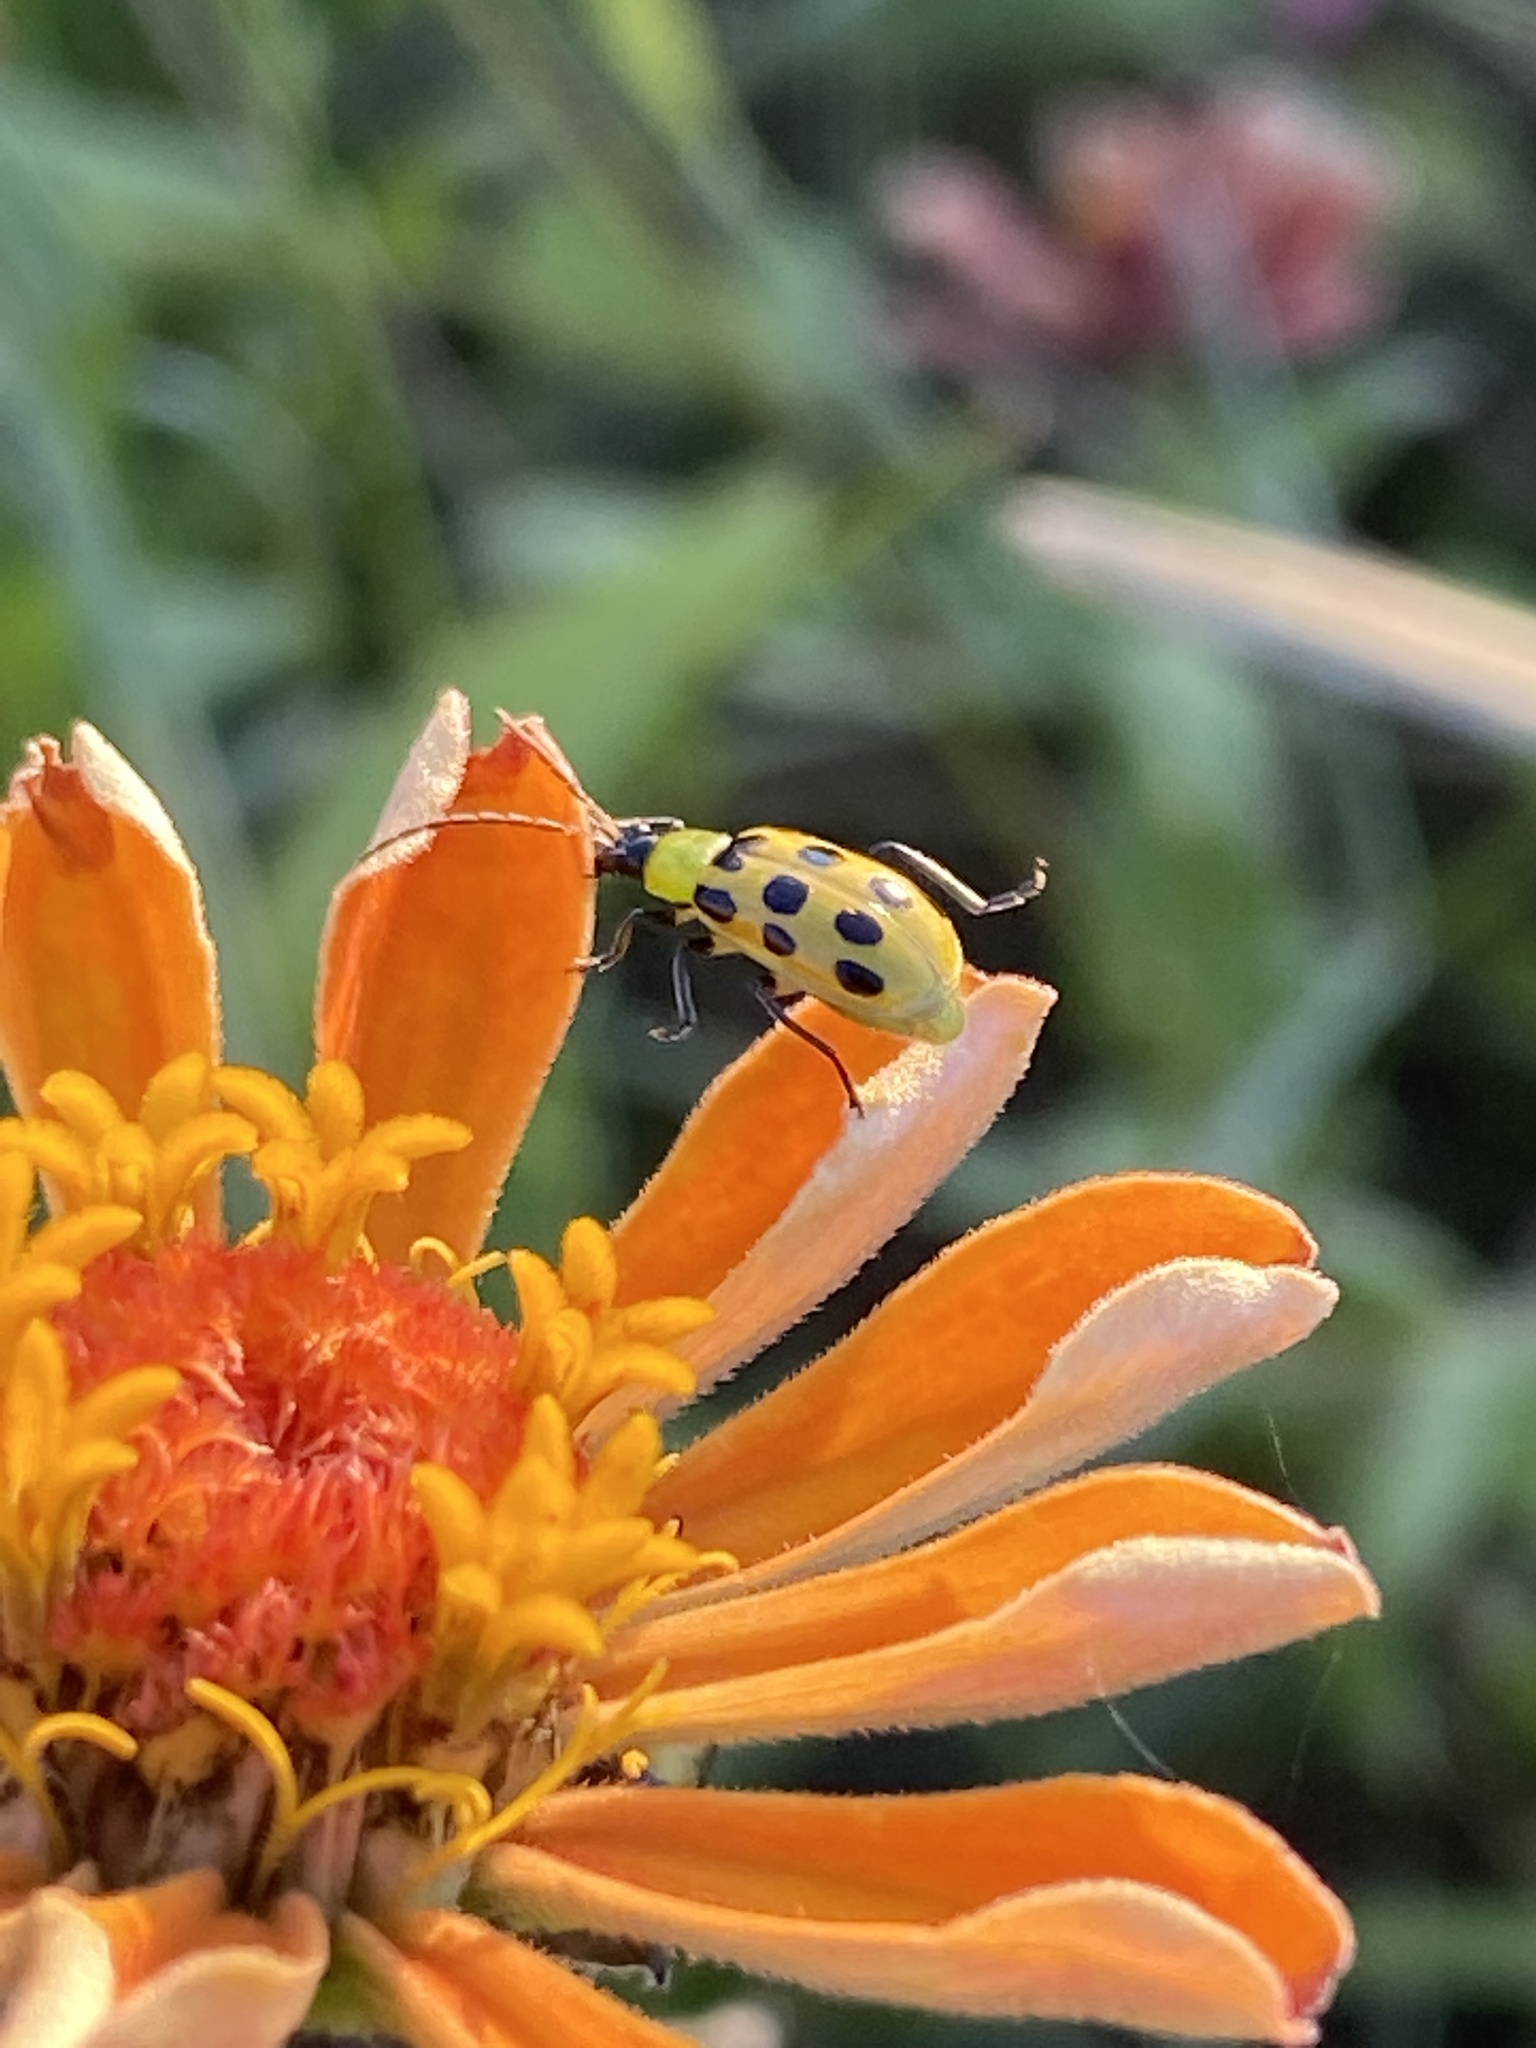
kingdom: Animalia
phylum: Arthropoda
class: Insecta
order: Coleoptera
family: Chrysomelidae
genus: Diabrotica
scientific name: Diabrotica undecimpunctata
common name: Spotted cucumber beetle
